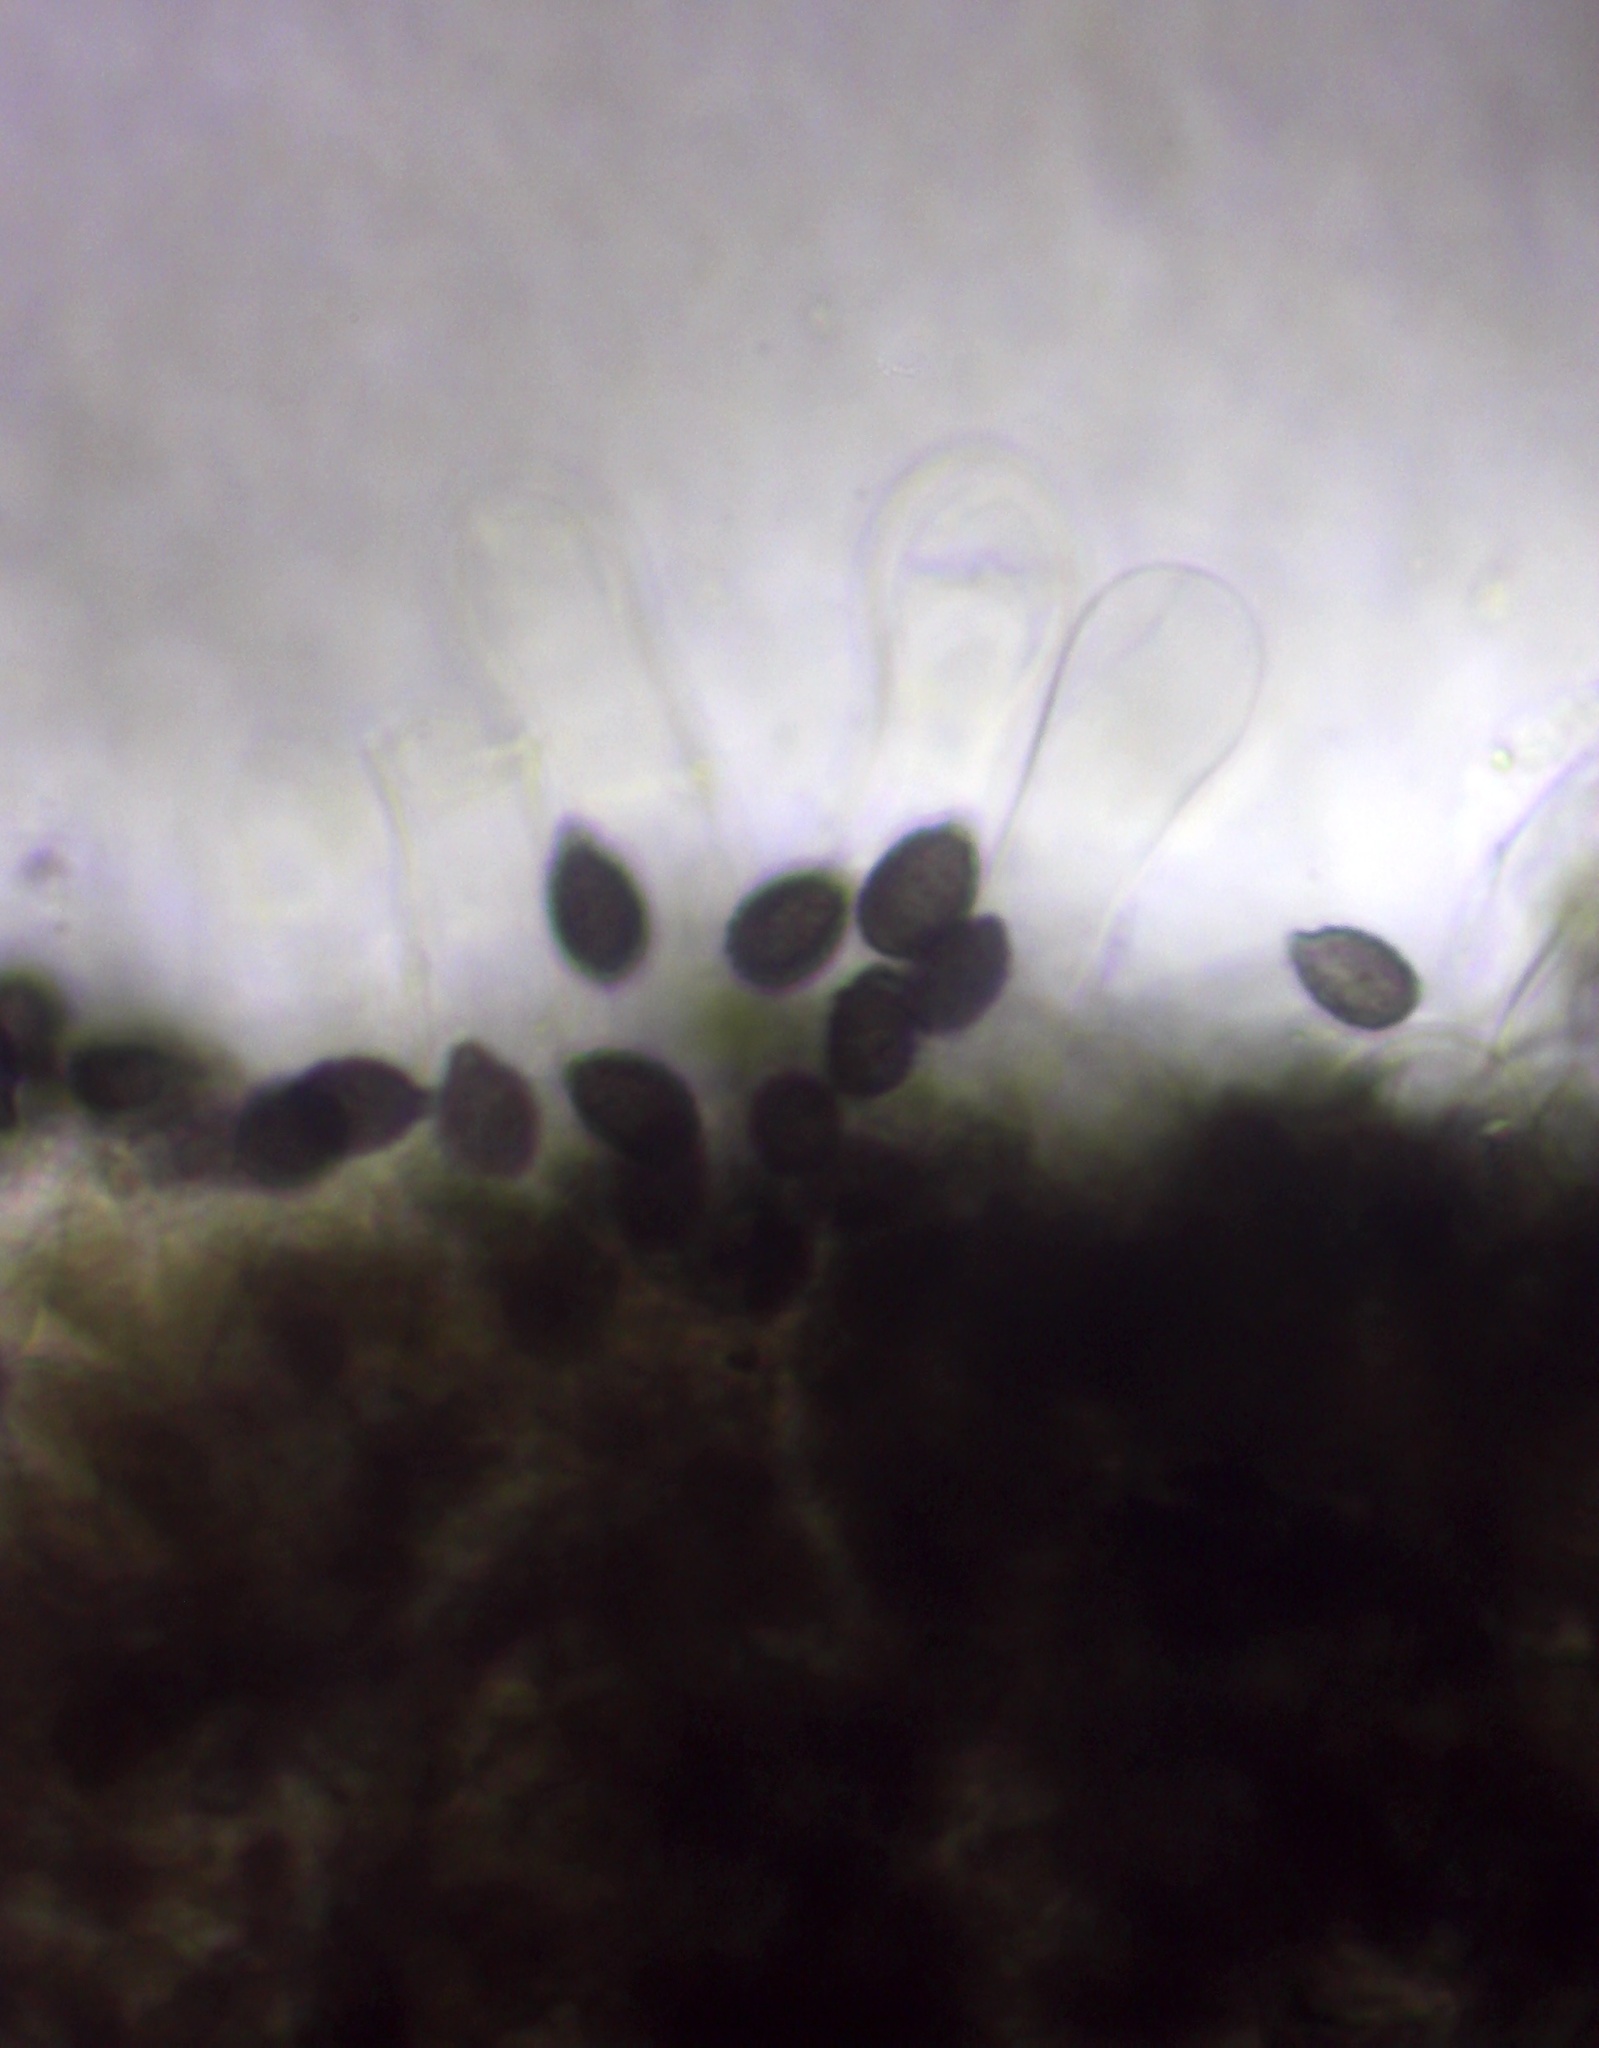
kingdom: Fungi
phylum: Basidiomycota
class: Agaricomycetes
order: Agaricales
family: Psathyrellaceae
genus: Lacrymaria
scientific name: Lacrymaria lacrymabunda
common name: Weeping widow
